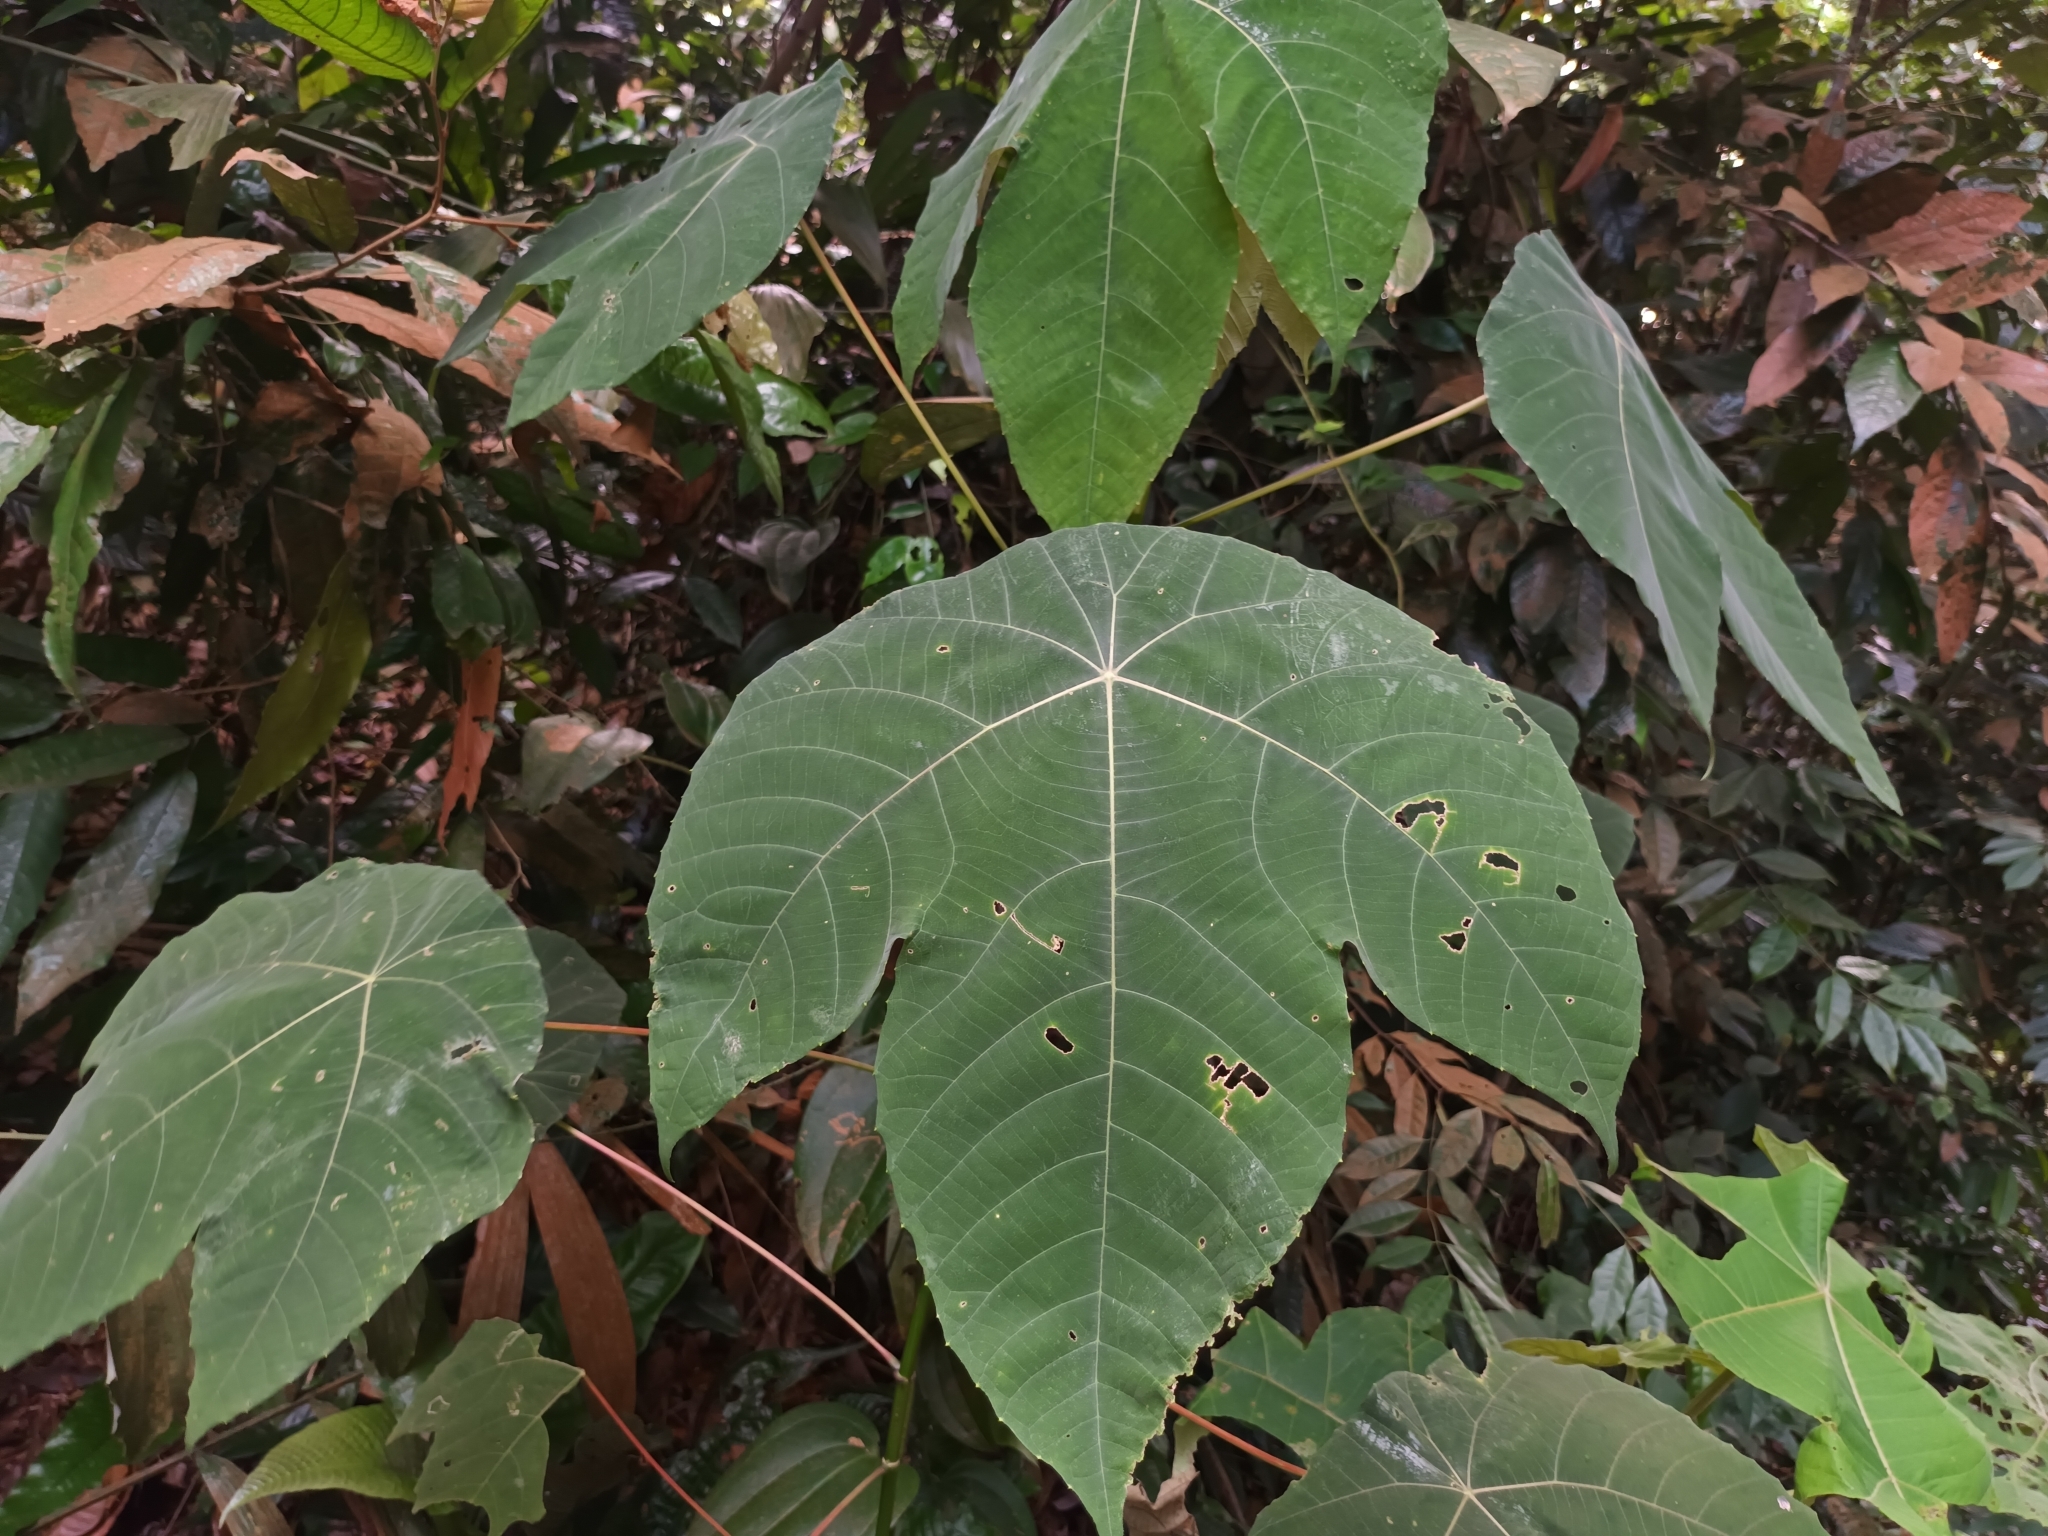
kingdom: Plantae
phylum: Tracheophyta
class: Magnoliopsida
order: Malpighiales
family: Euphorbiaceae
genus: Macaranga
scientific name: Macaranga bancana
